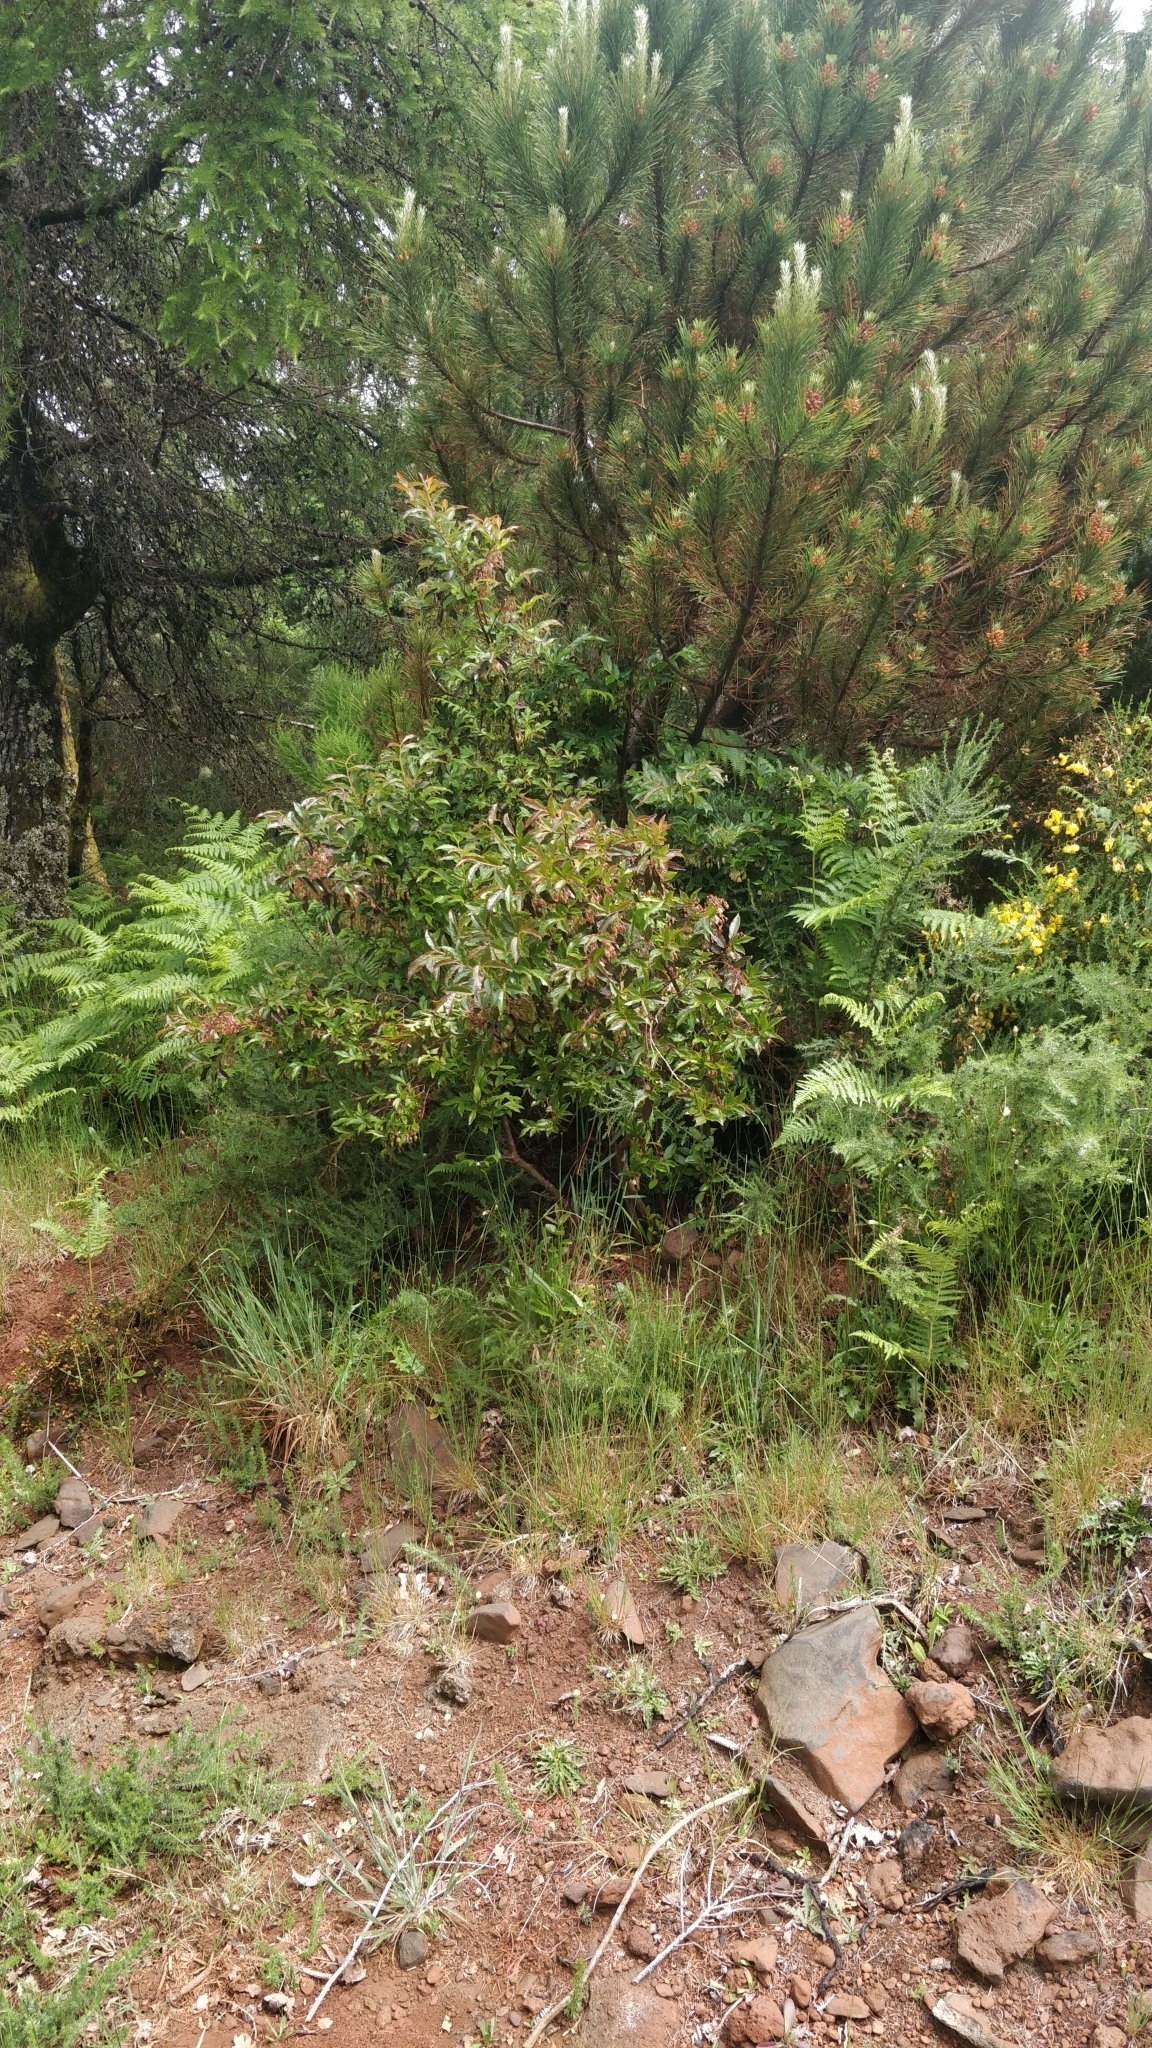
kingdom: Plantae
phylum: Tracheophyta
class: Magnoliopsida
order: Ericales
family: Ericaceae
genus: Vaccinium
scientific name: Vaccinium padifolium
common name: Madeiran blueberry
